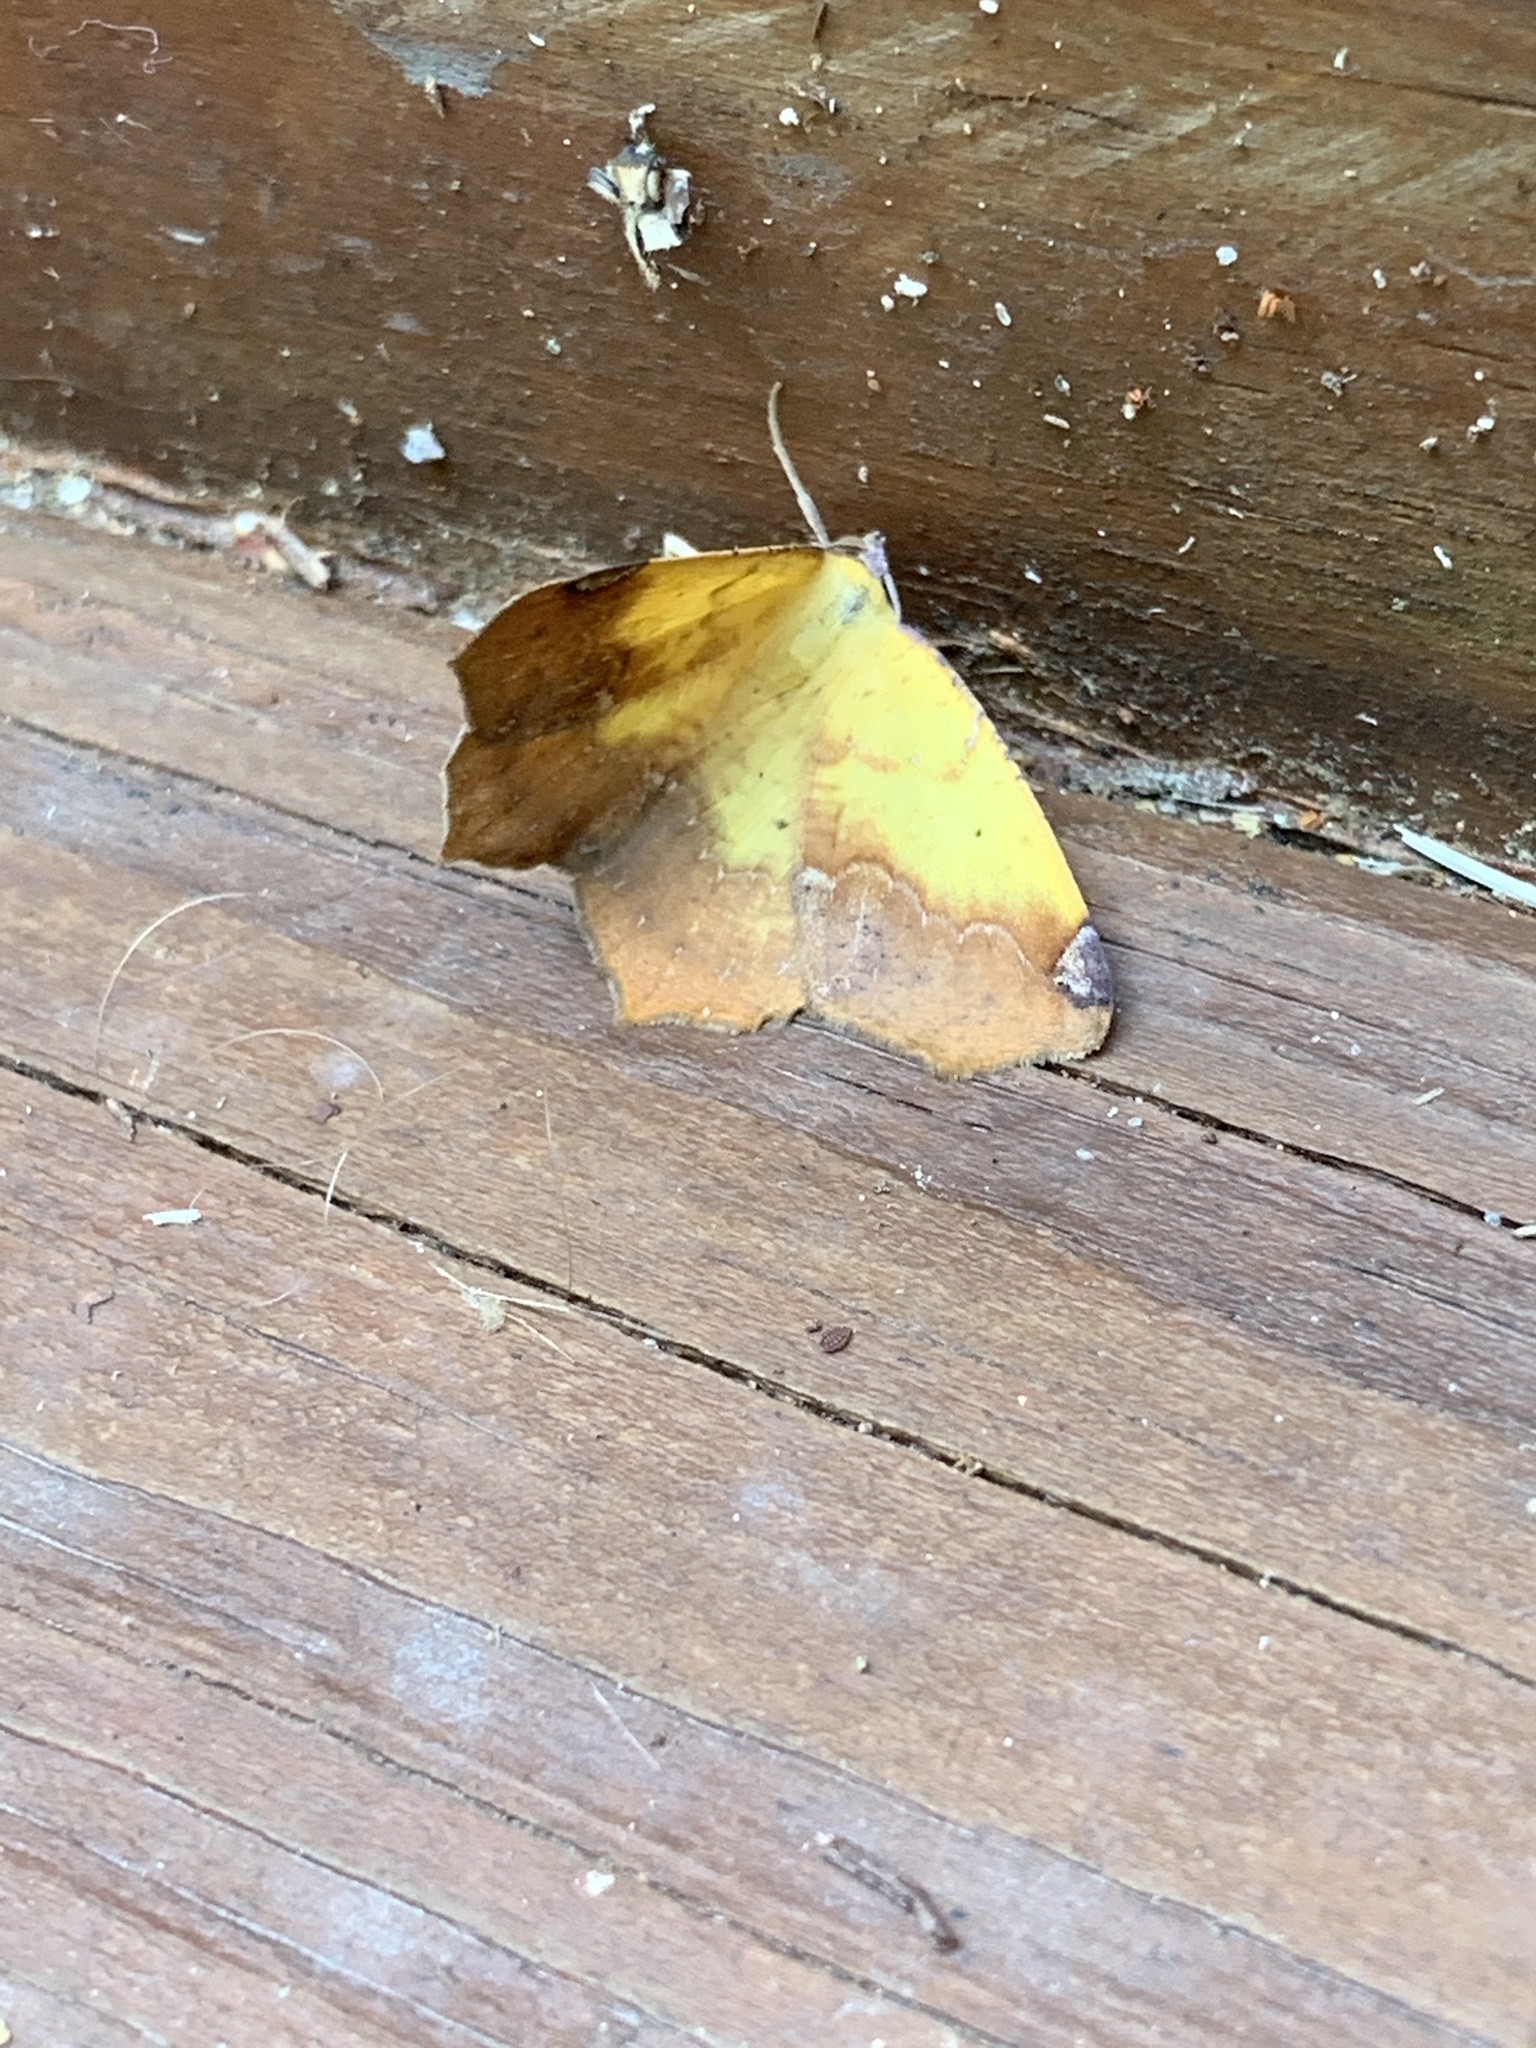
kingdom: Animalia
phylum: Arthropoda
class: Insecta
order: Lepidoptera
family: Geometridae
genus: Antepione
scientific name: Antepione thisoaria
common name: Variable antipione
